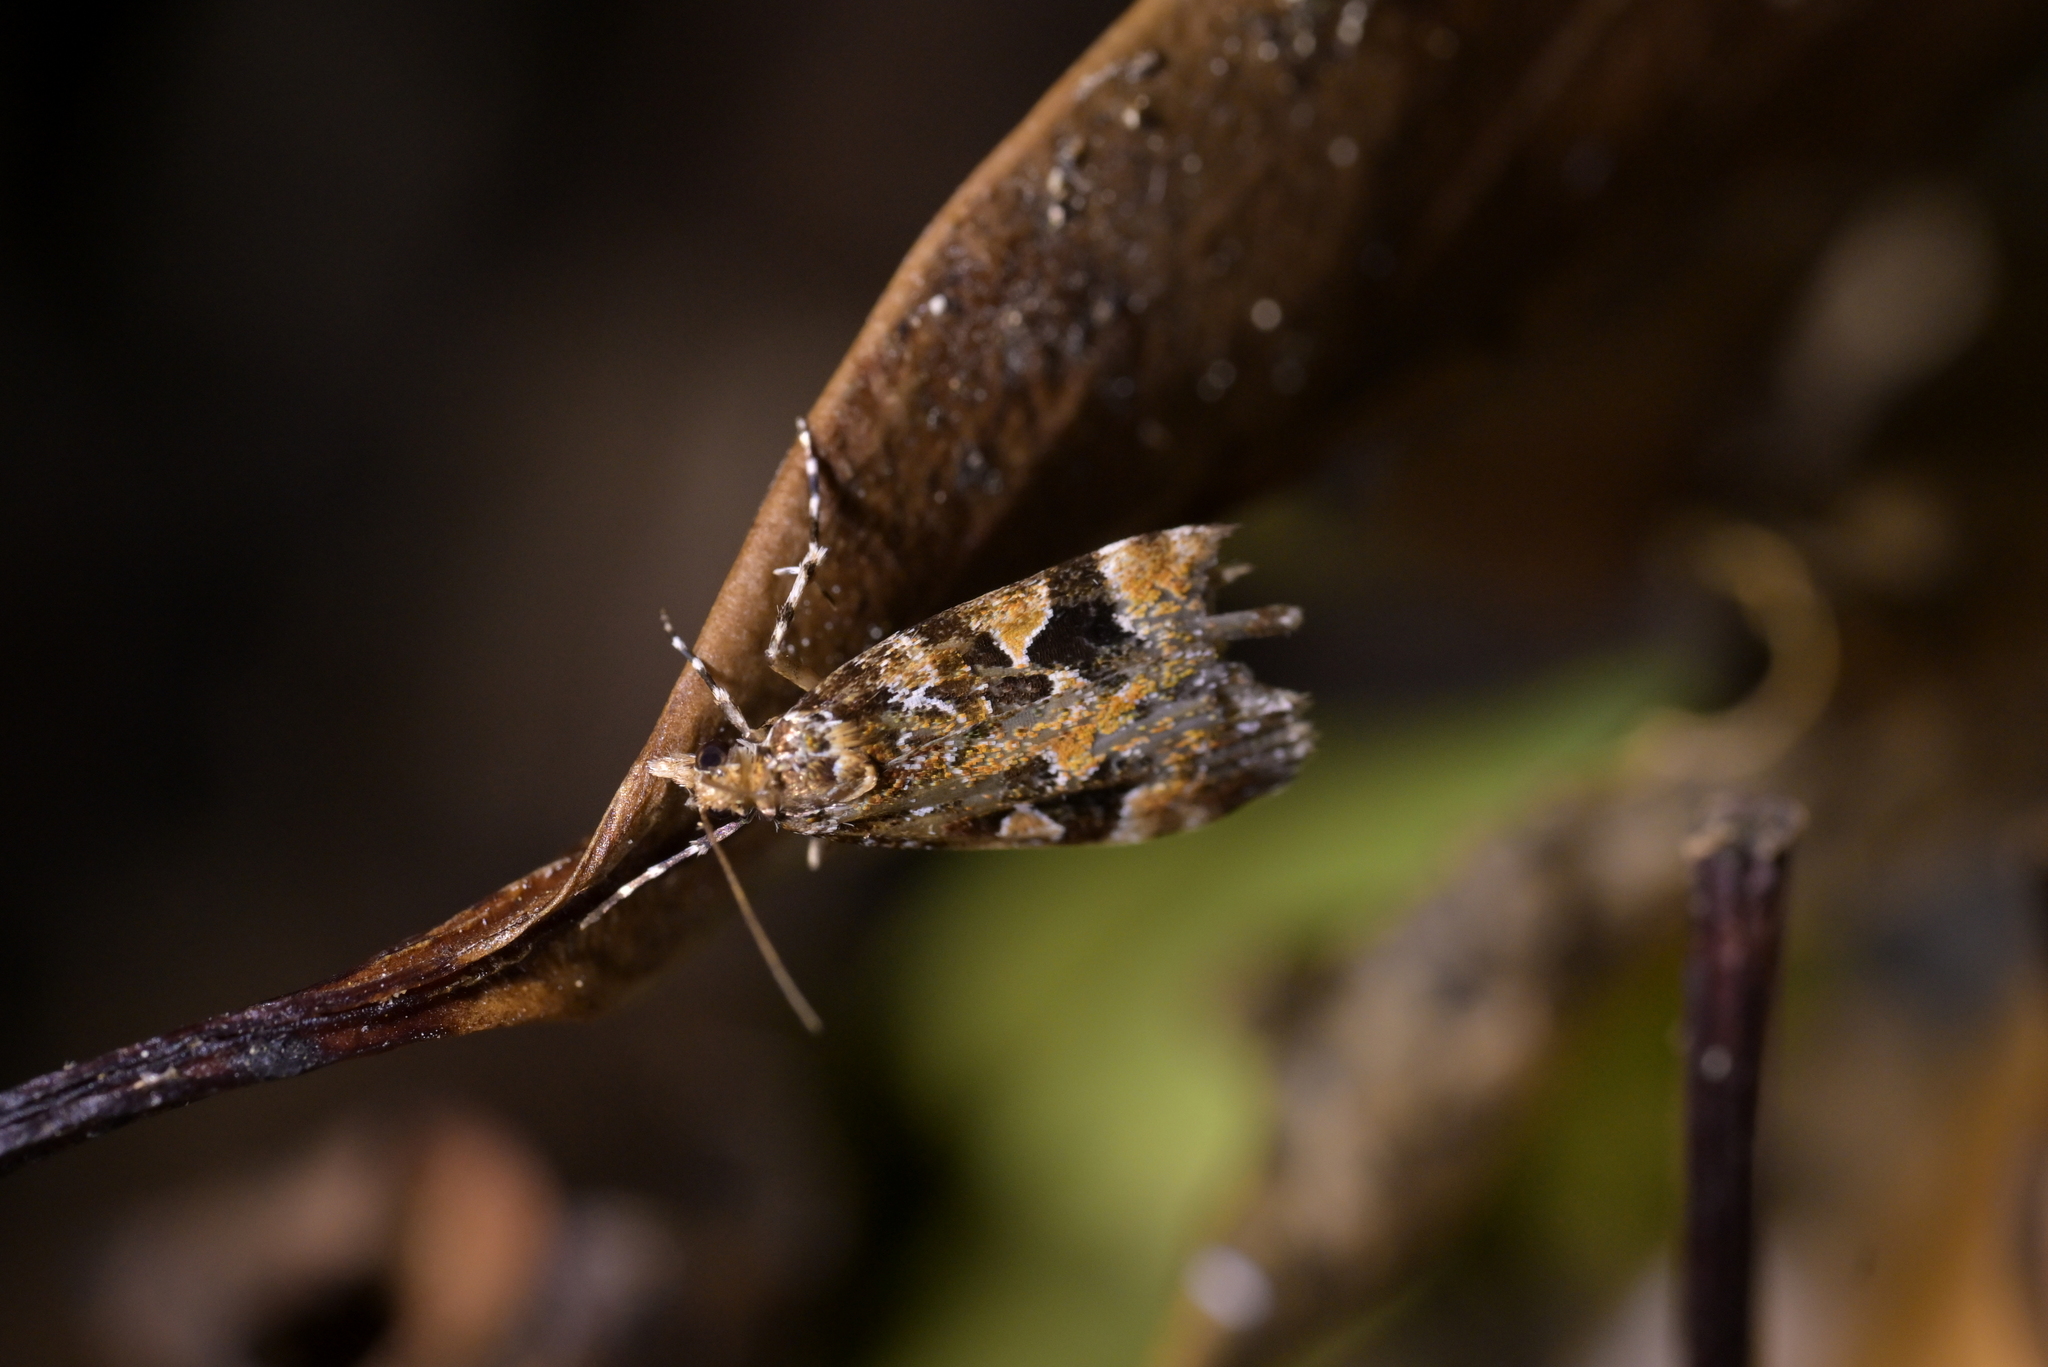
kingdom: Animalia
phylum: Arthropoda
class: Insecta
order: Lepidoptera
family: Crambidae
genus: Scoparia
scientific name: Scoparia ustimacula
